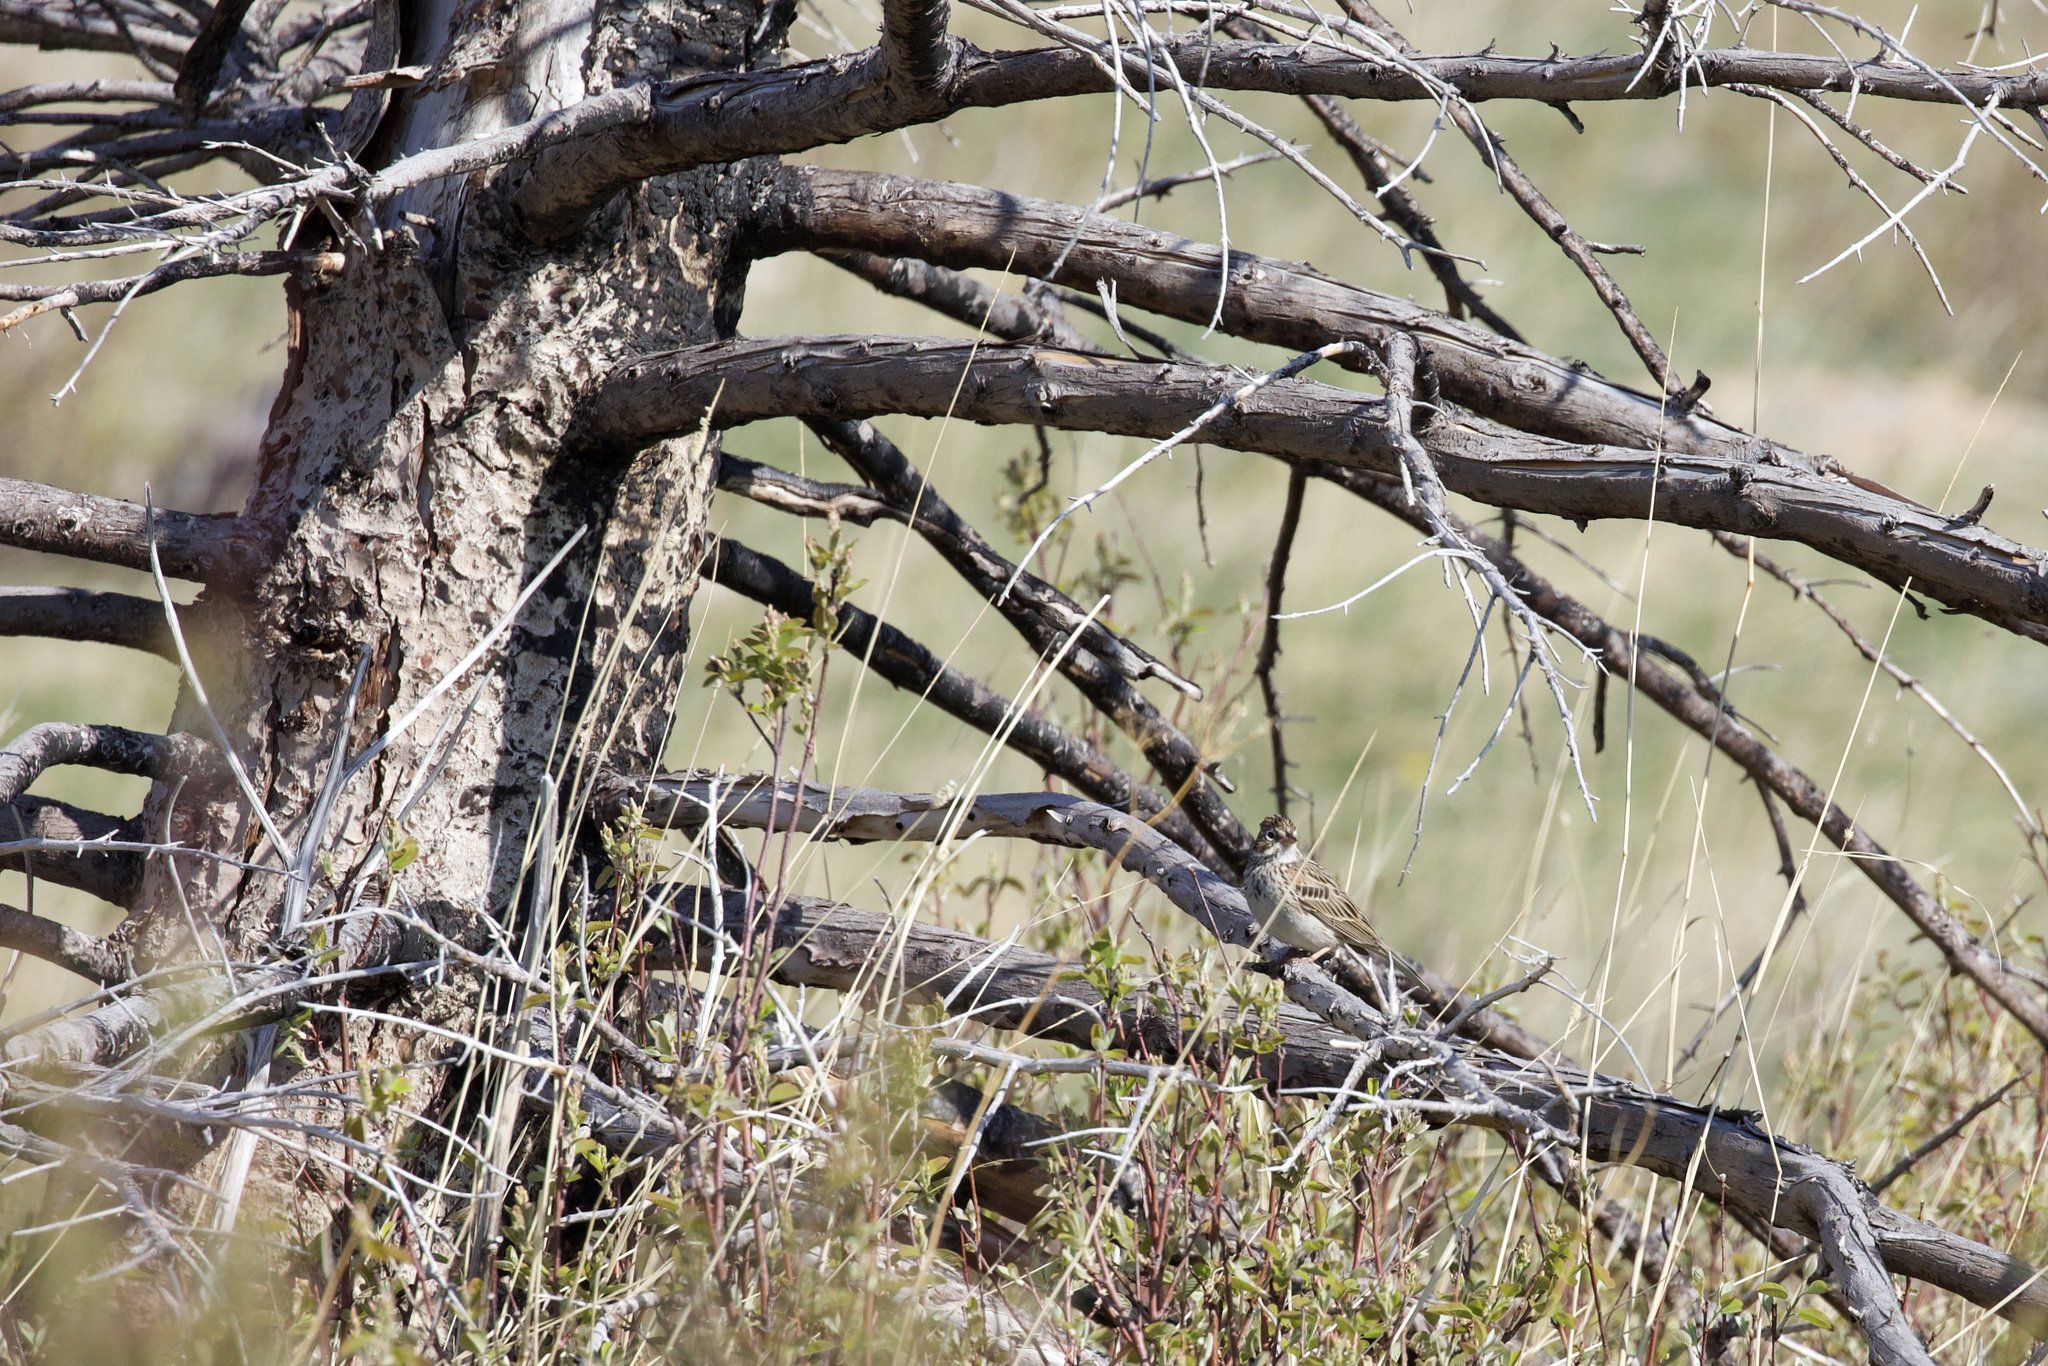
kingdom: Animalia
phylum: Chordata
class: Aves
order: Passeriformes
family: Passerellidae
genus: Pooecetes
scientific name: Pooecetes gramineus
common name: Vesper sparrow
